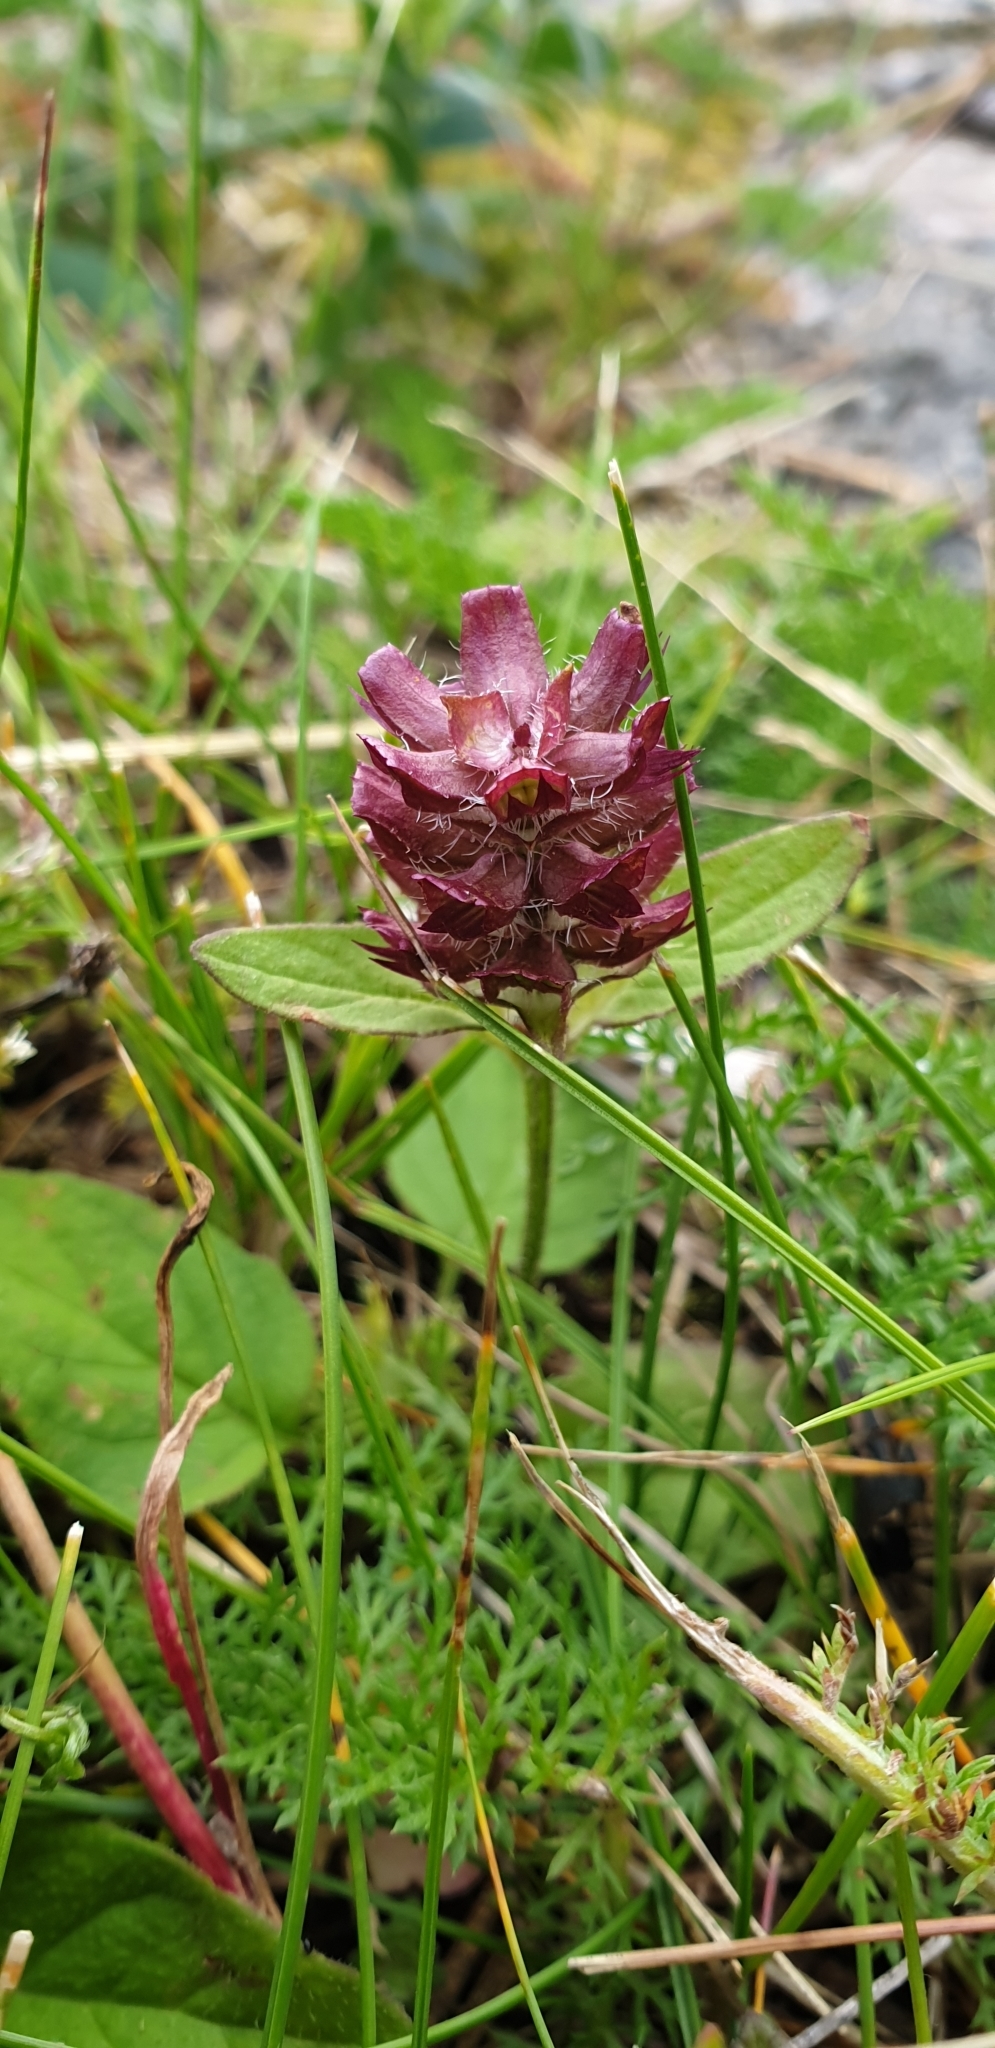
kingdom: Plantae
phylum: Tracheophyta
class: Magnoliopsida
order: Lamiales
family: Lamiaceae
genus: Prunella
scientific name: Prunella vulgaris
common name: Heal-all
